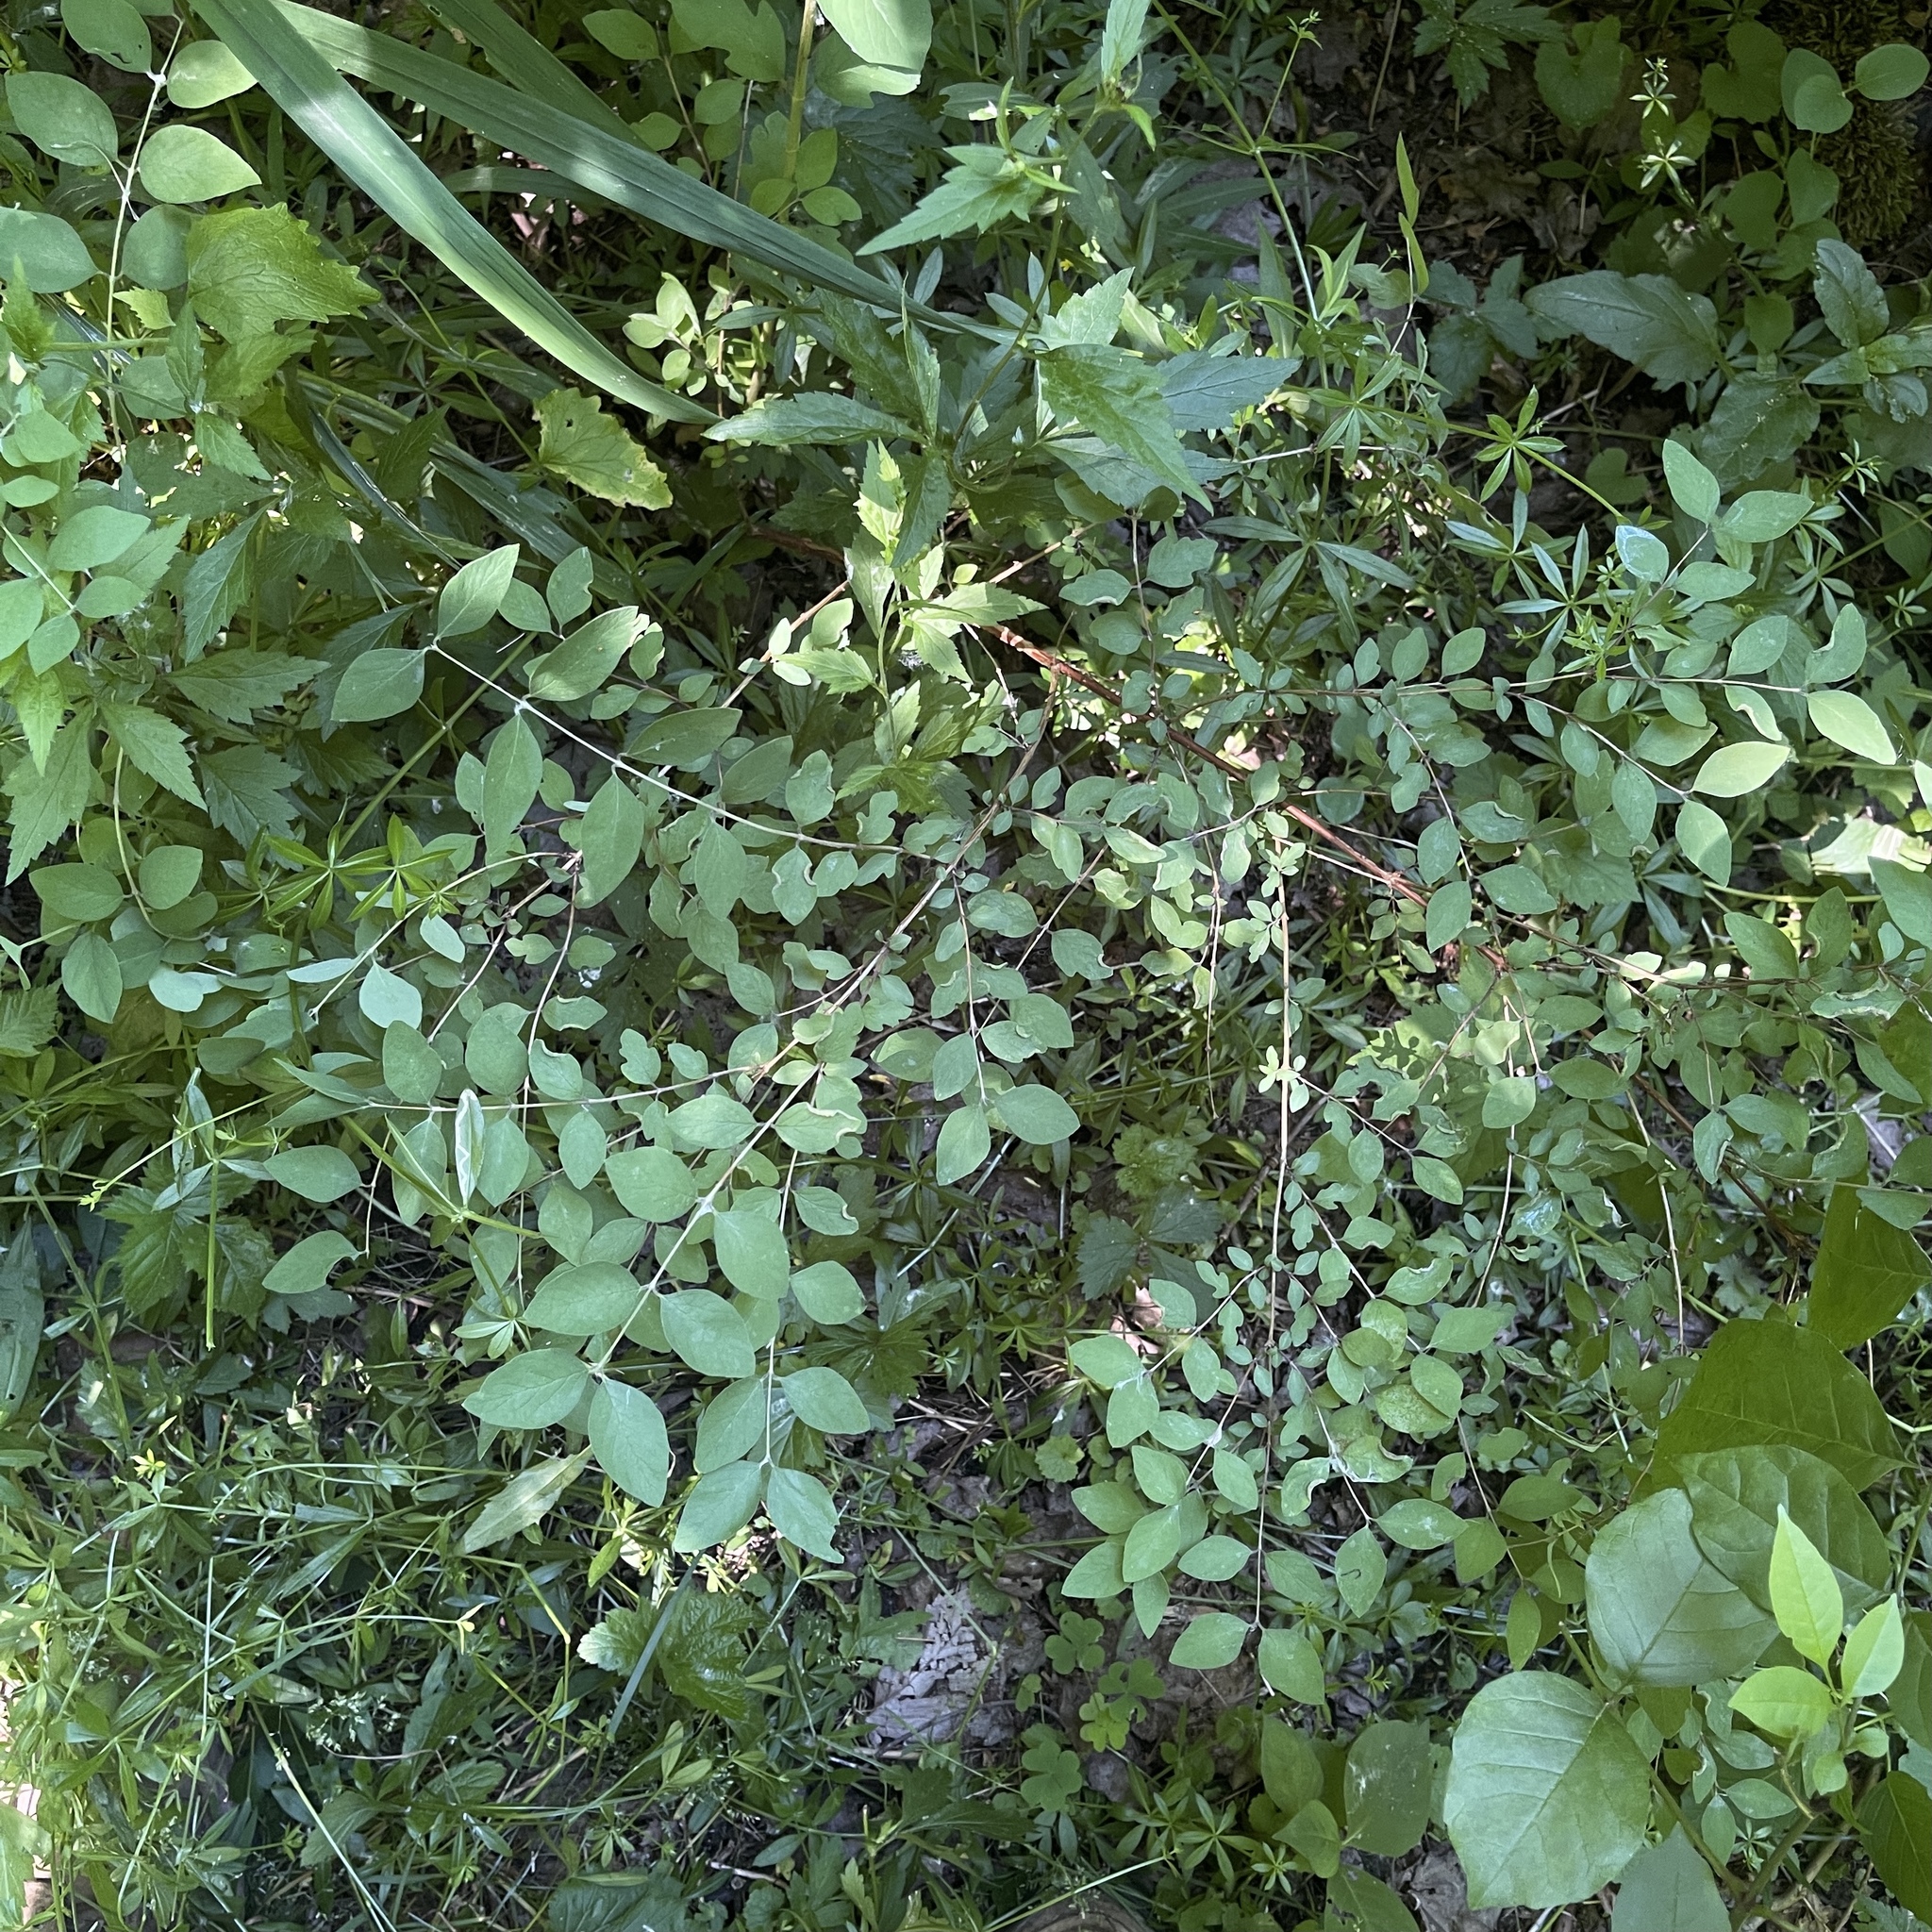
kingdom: Plantae
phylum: Tracheophyta
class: Magnoliopsida
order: Dipsacales
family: Caprifoliaceae
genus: Symphoricarpos
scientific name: Symphoricarpos orbiculatus
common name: Coralberry
